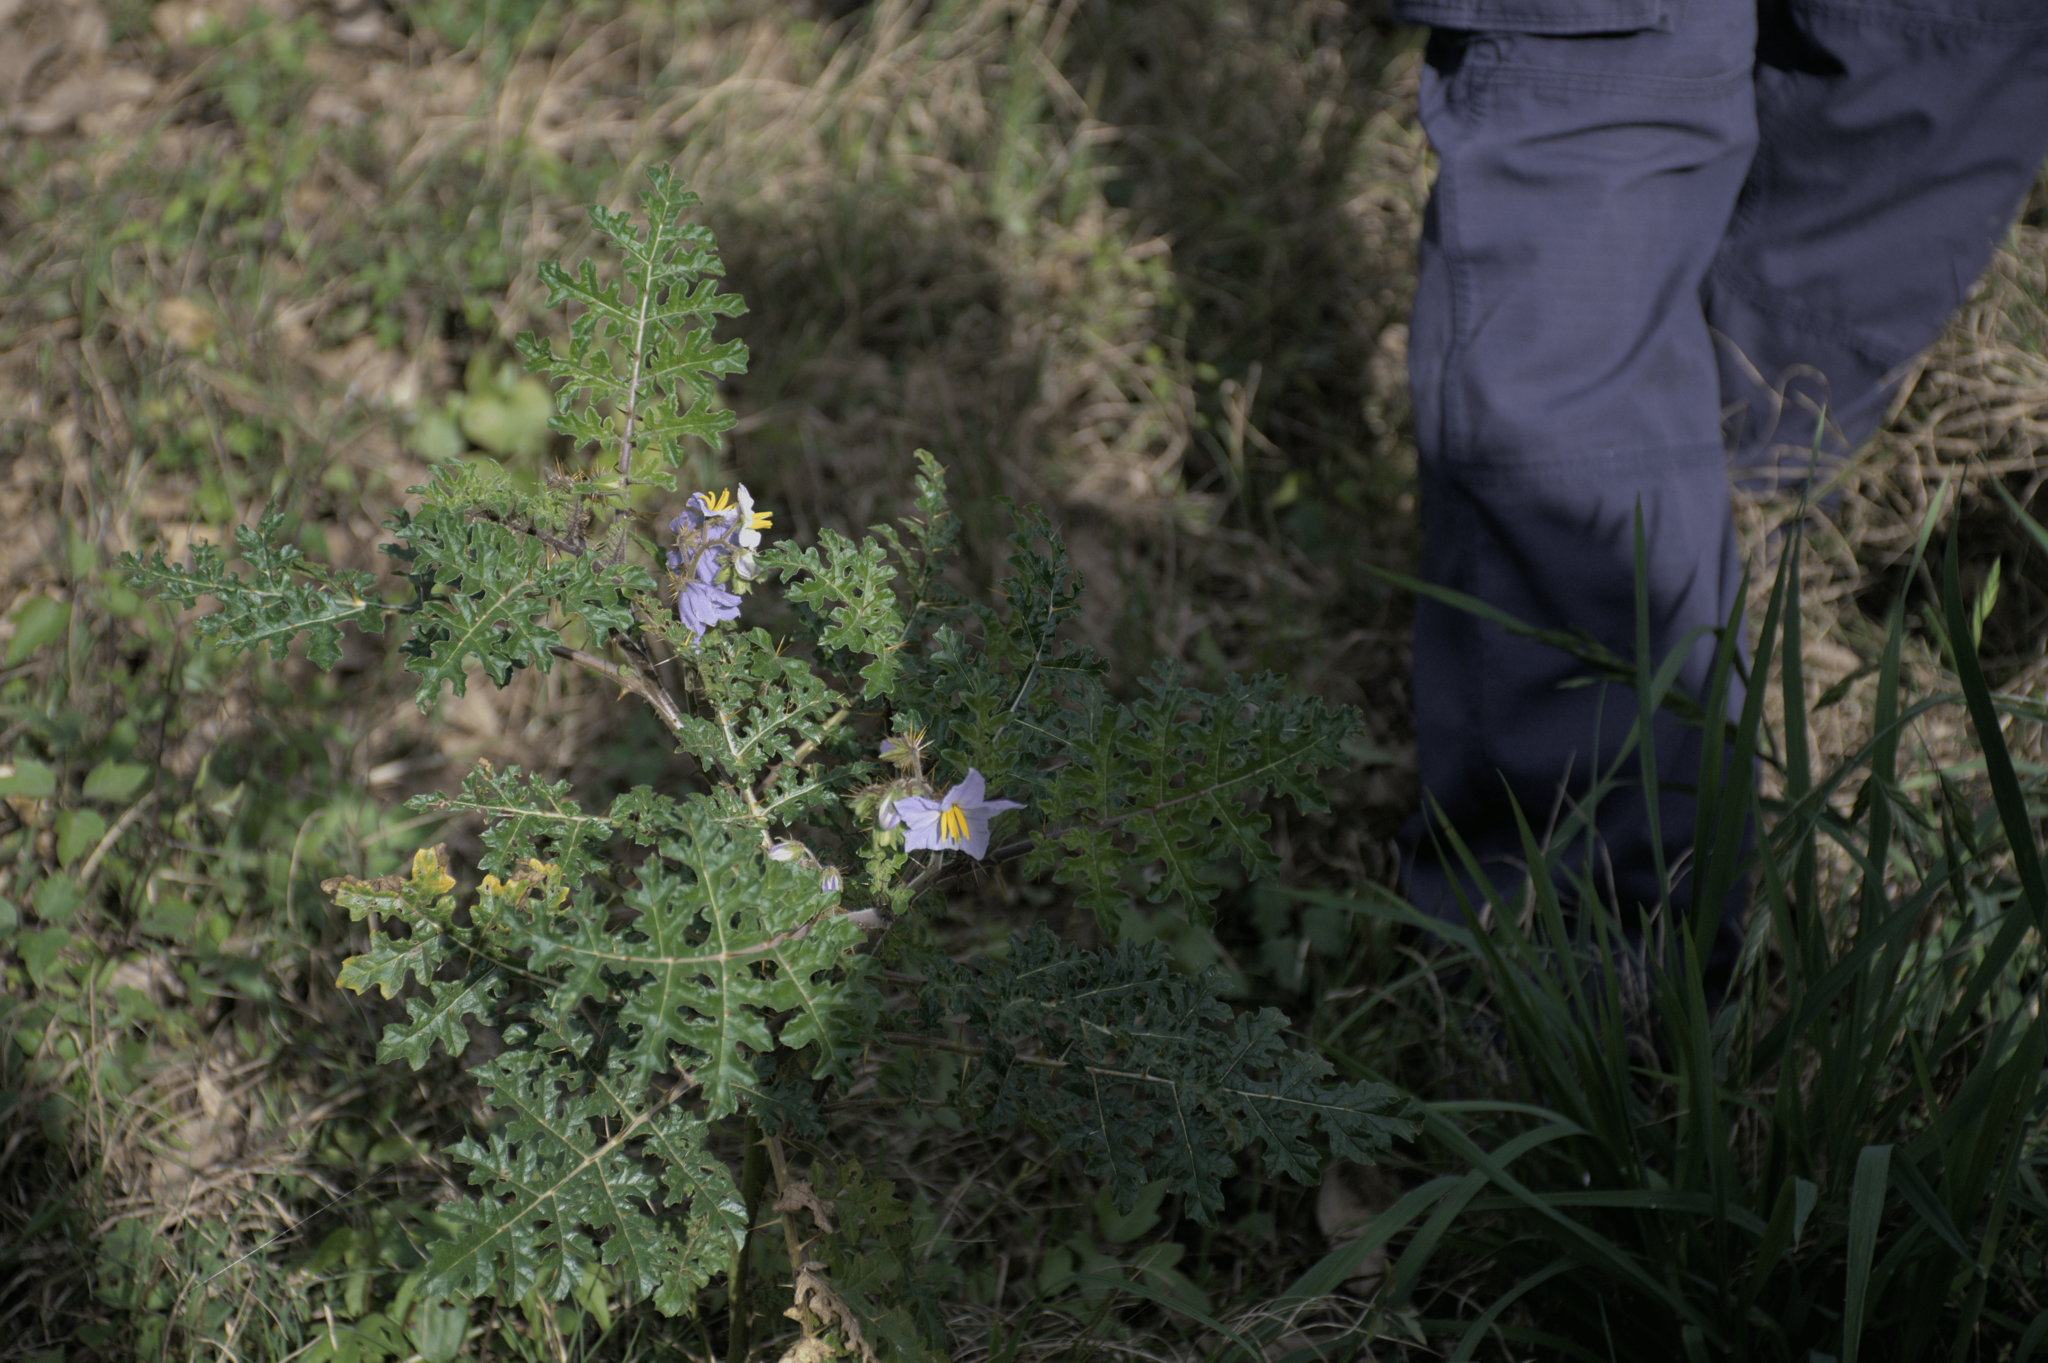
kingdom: Plantae
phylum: Tracheophyta
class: Magnoliopsida
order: Solanales
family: Solanaceae
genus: Solanum
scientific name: Solanum sisymbriifolium
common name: Red buffalo-bur
